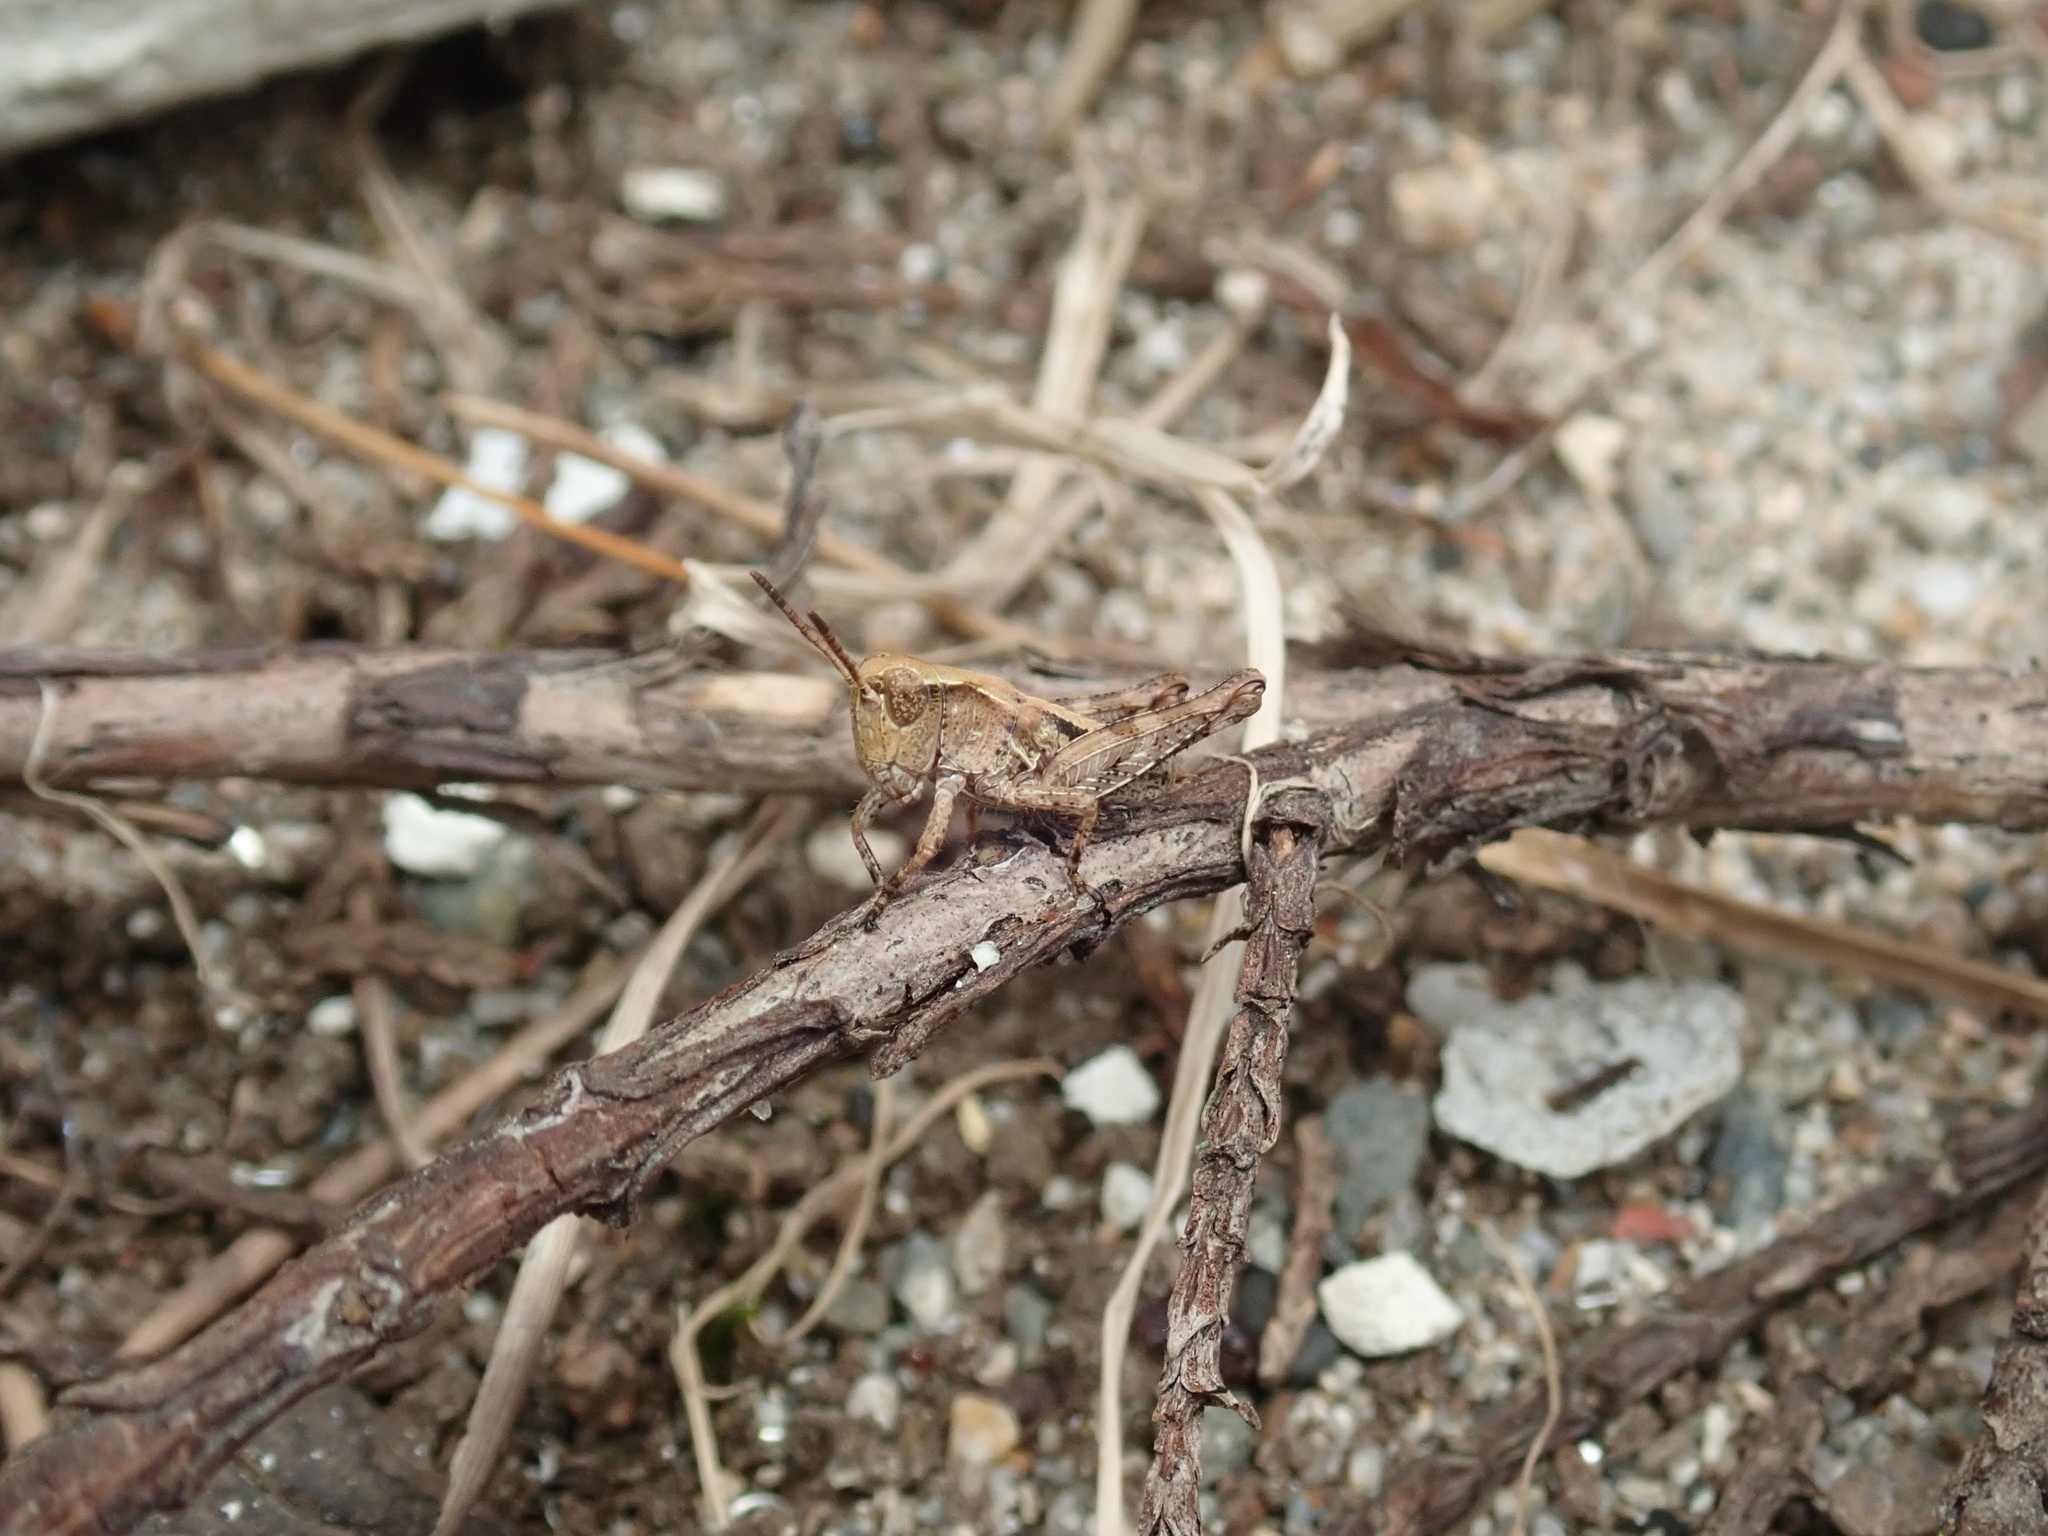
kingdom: Animalia
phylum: Arthropoda
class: Insecta
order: Orthoptera
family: Acrididae
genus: Phaulacridium
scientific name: Phaulacridium marginale
